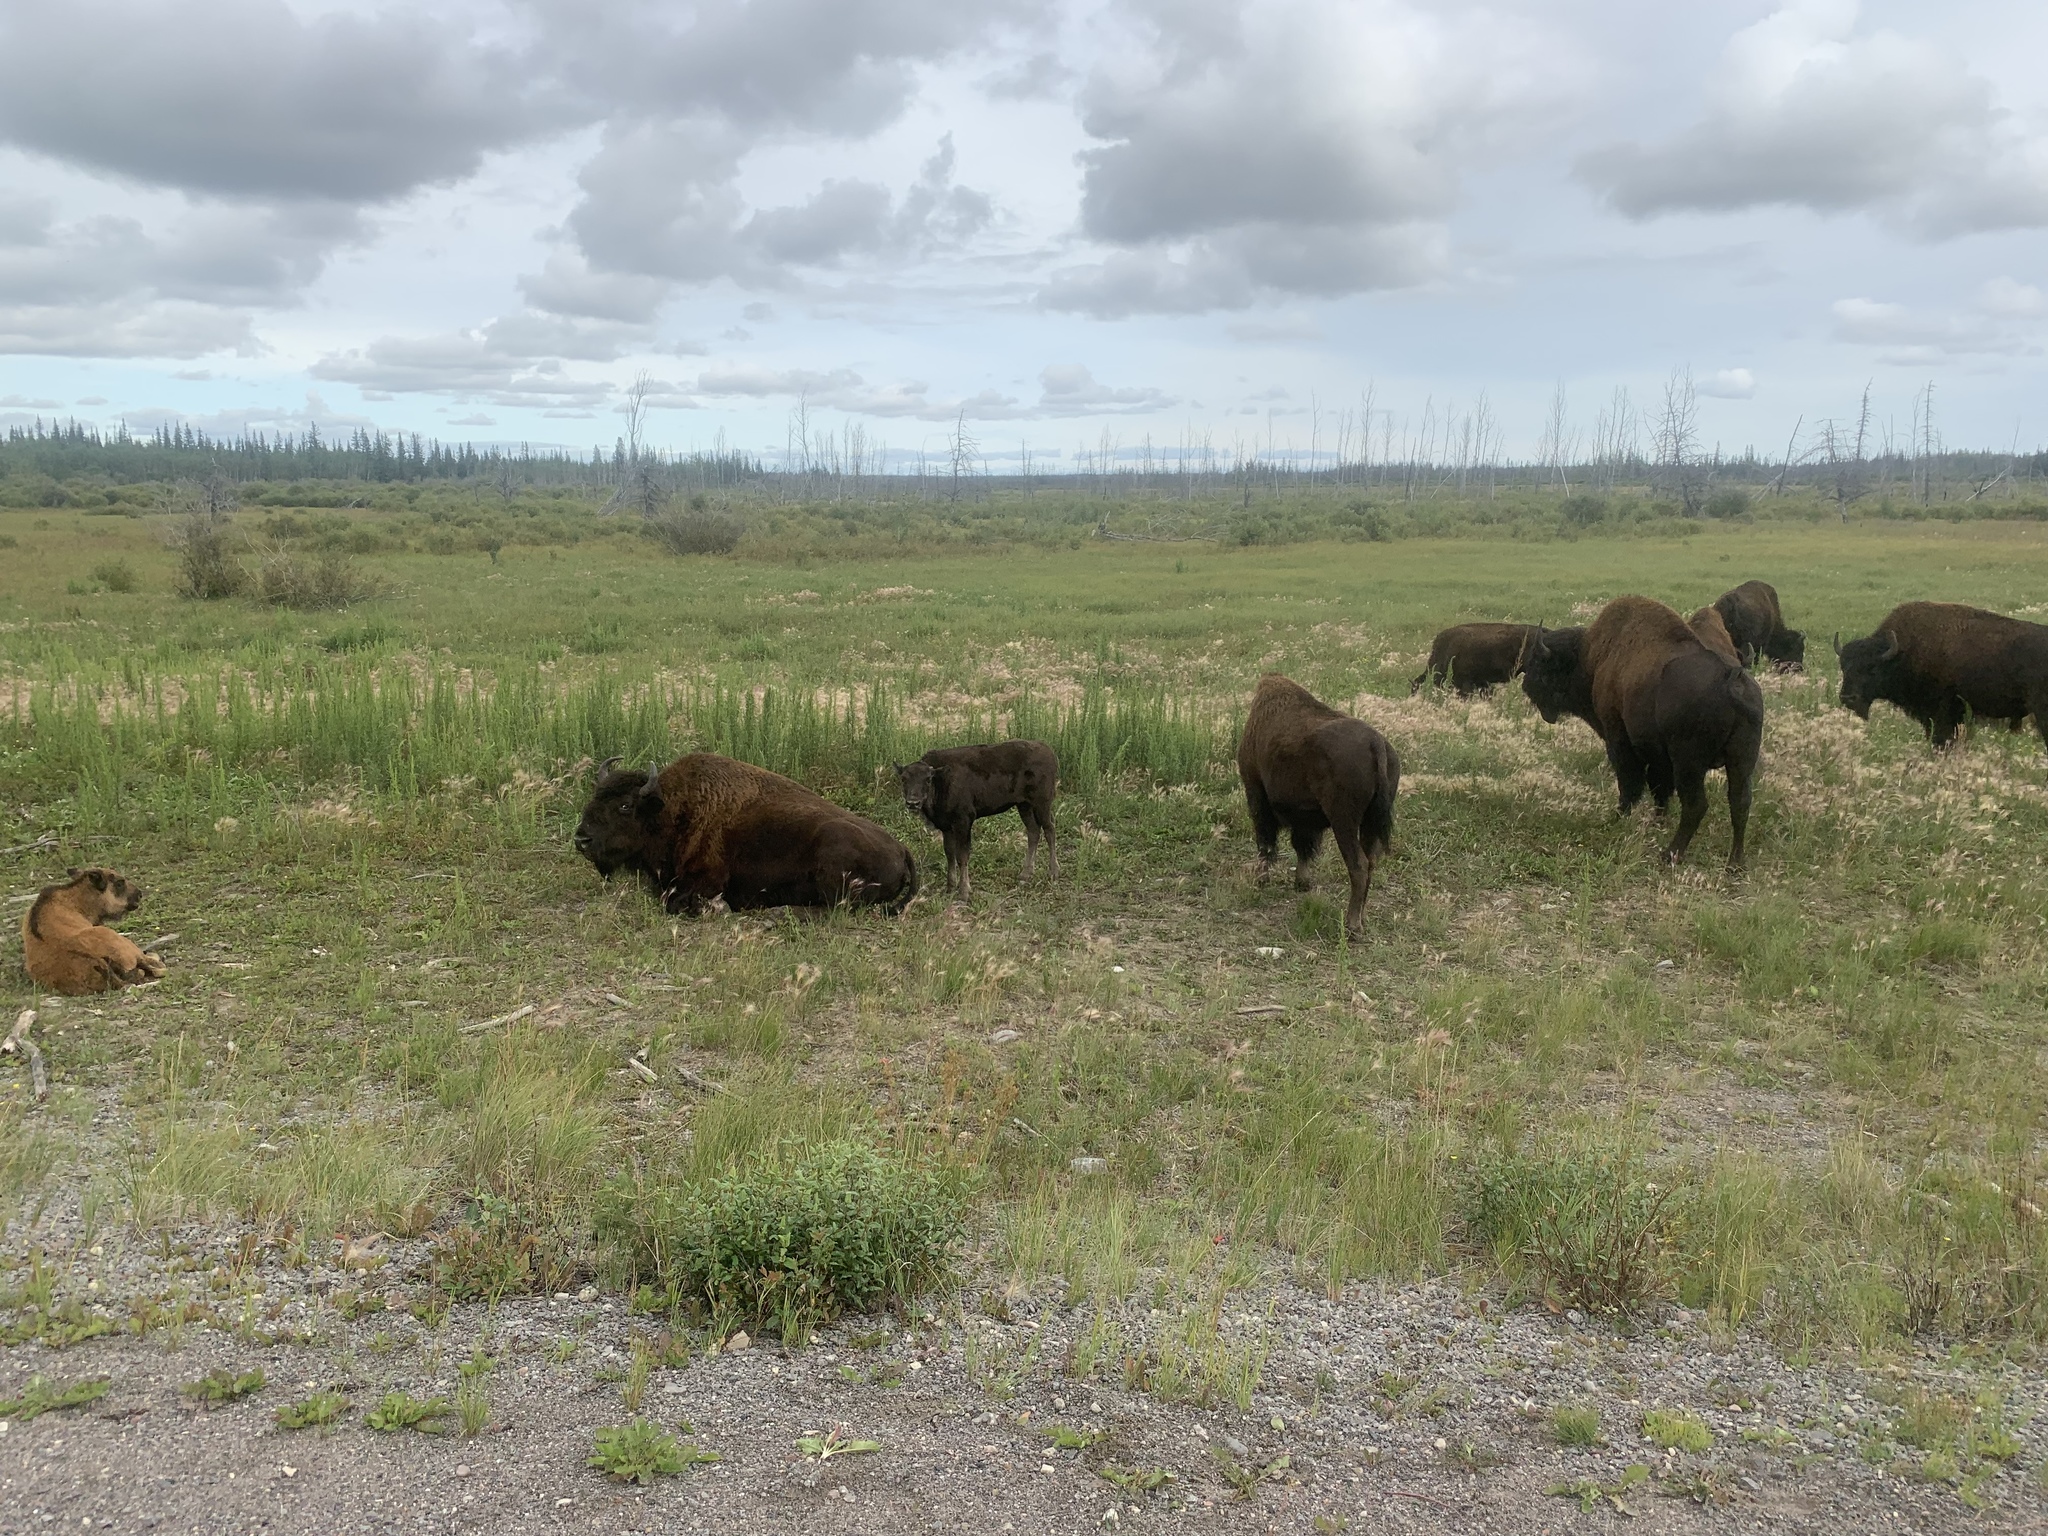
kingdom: Animalia
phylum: Chordata
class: Mammalia
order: Artiodactyla
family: Bovidae
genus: Bison
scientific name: Bison bison
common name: American bison
